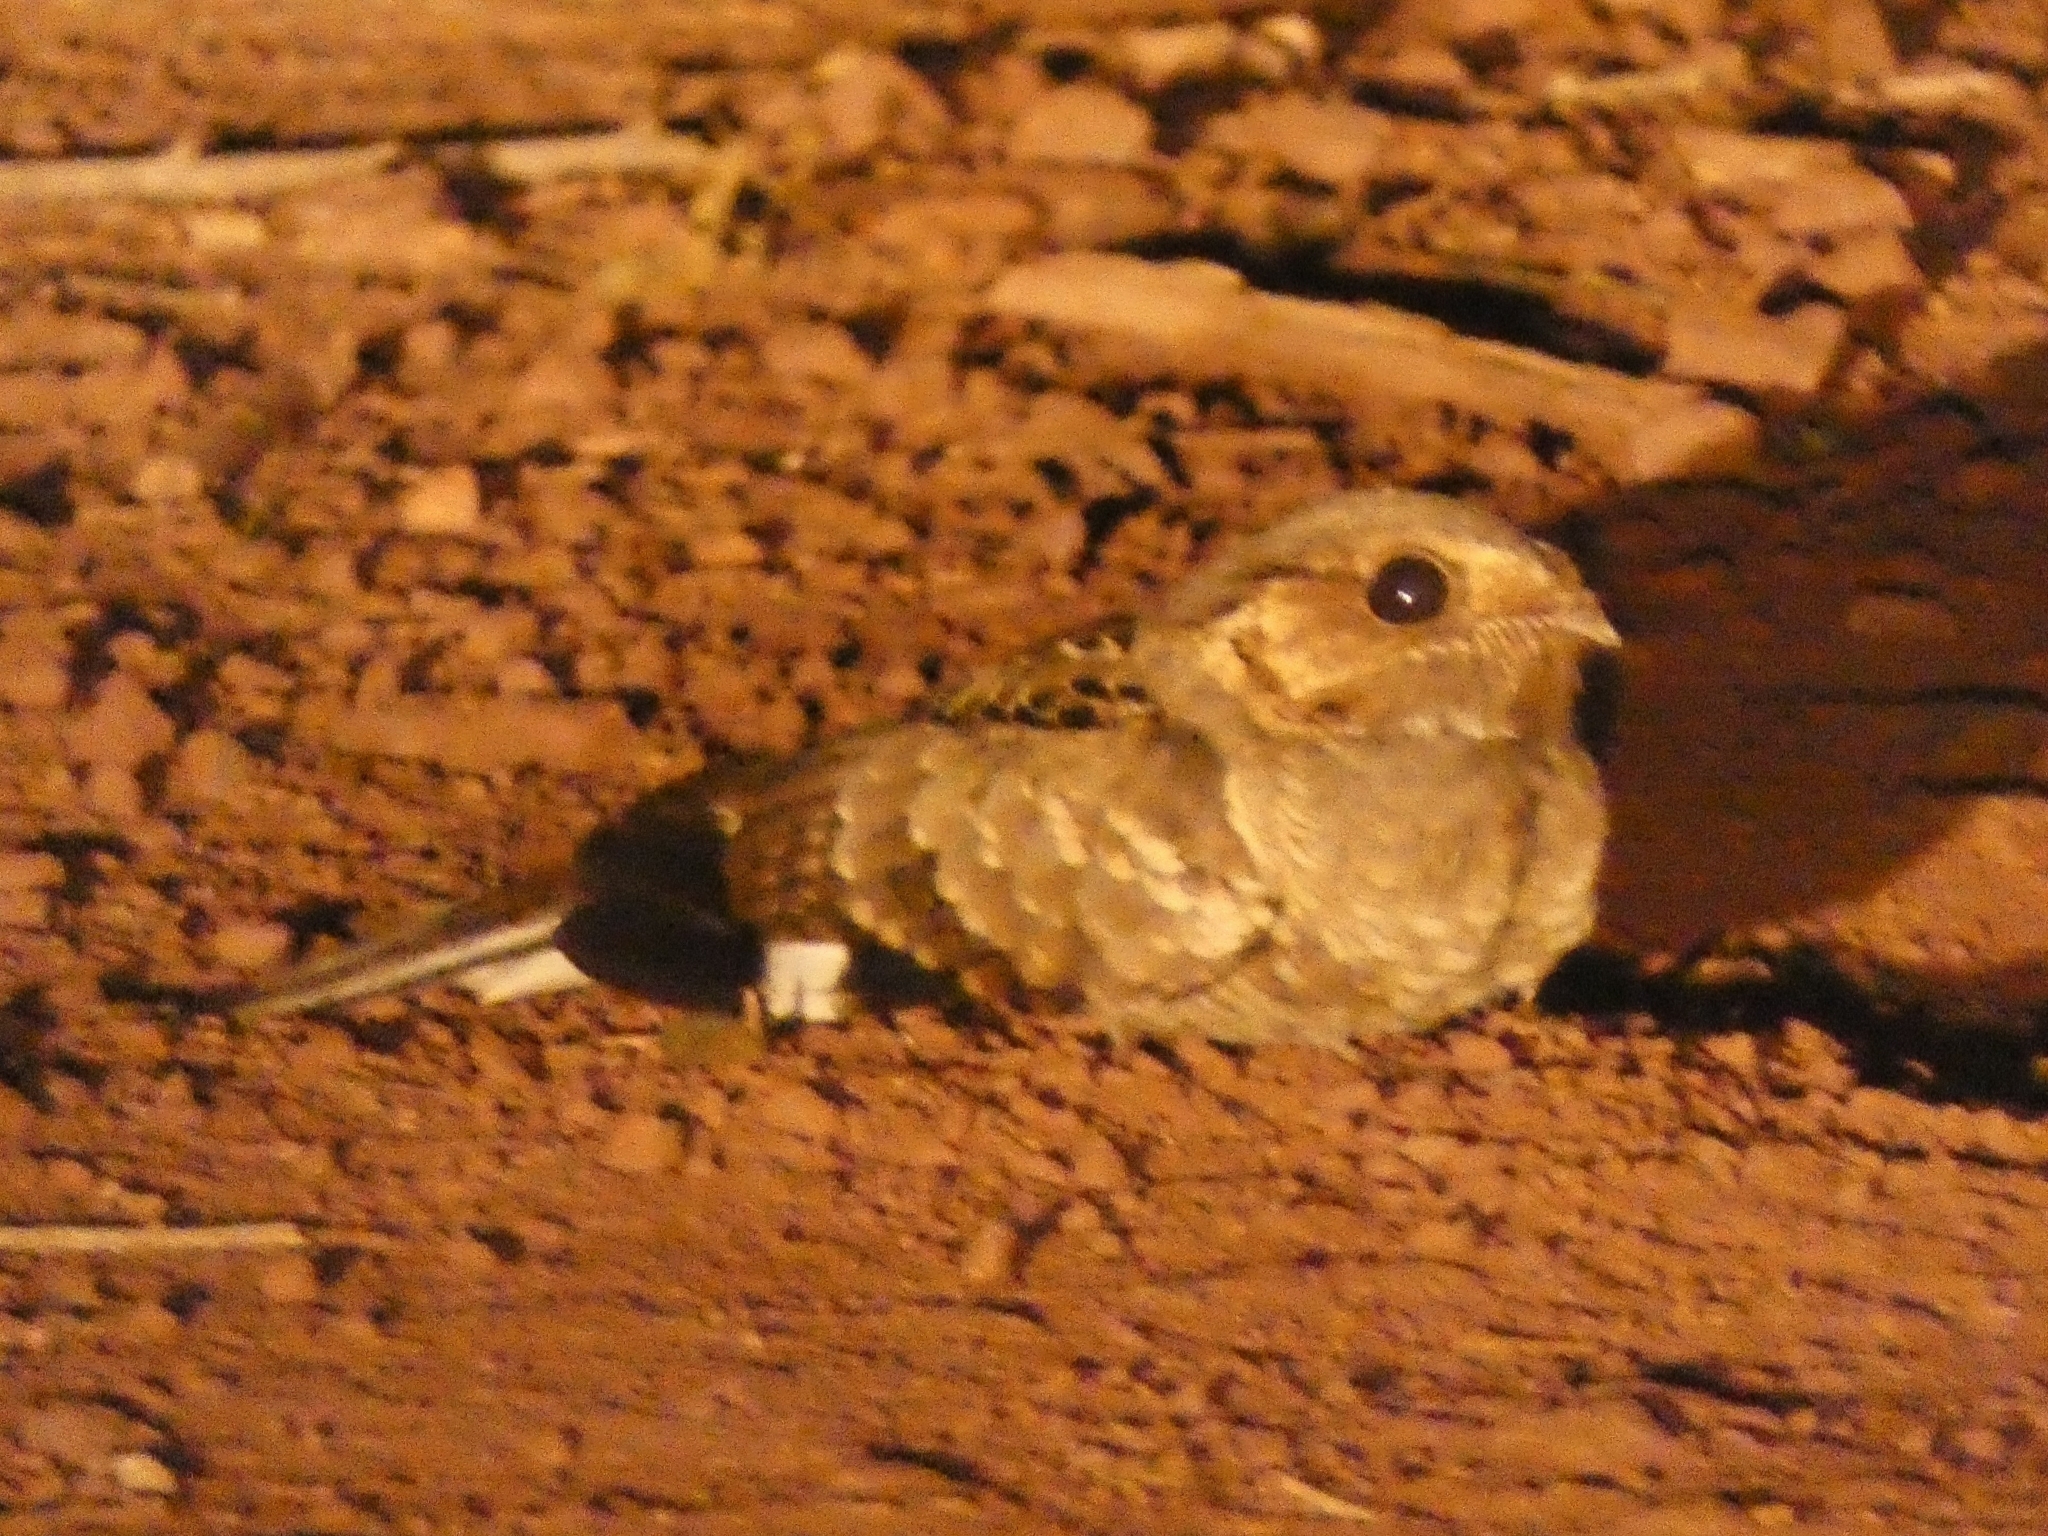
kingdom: Animalia
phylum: Chordata
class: Aves
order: Caprimulgiformes
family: Caprimulgidae
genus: Nyctidromus
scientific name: Nyctidromus albicollis
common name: Pauraque
